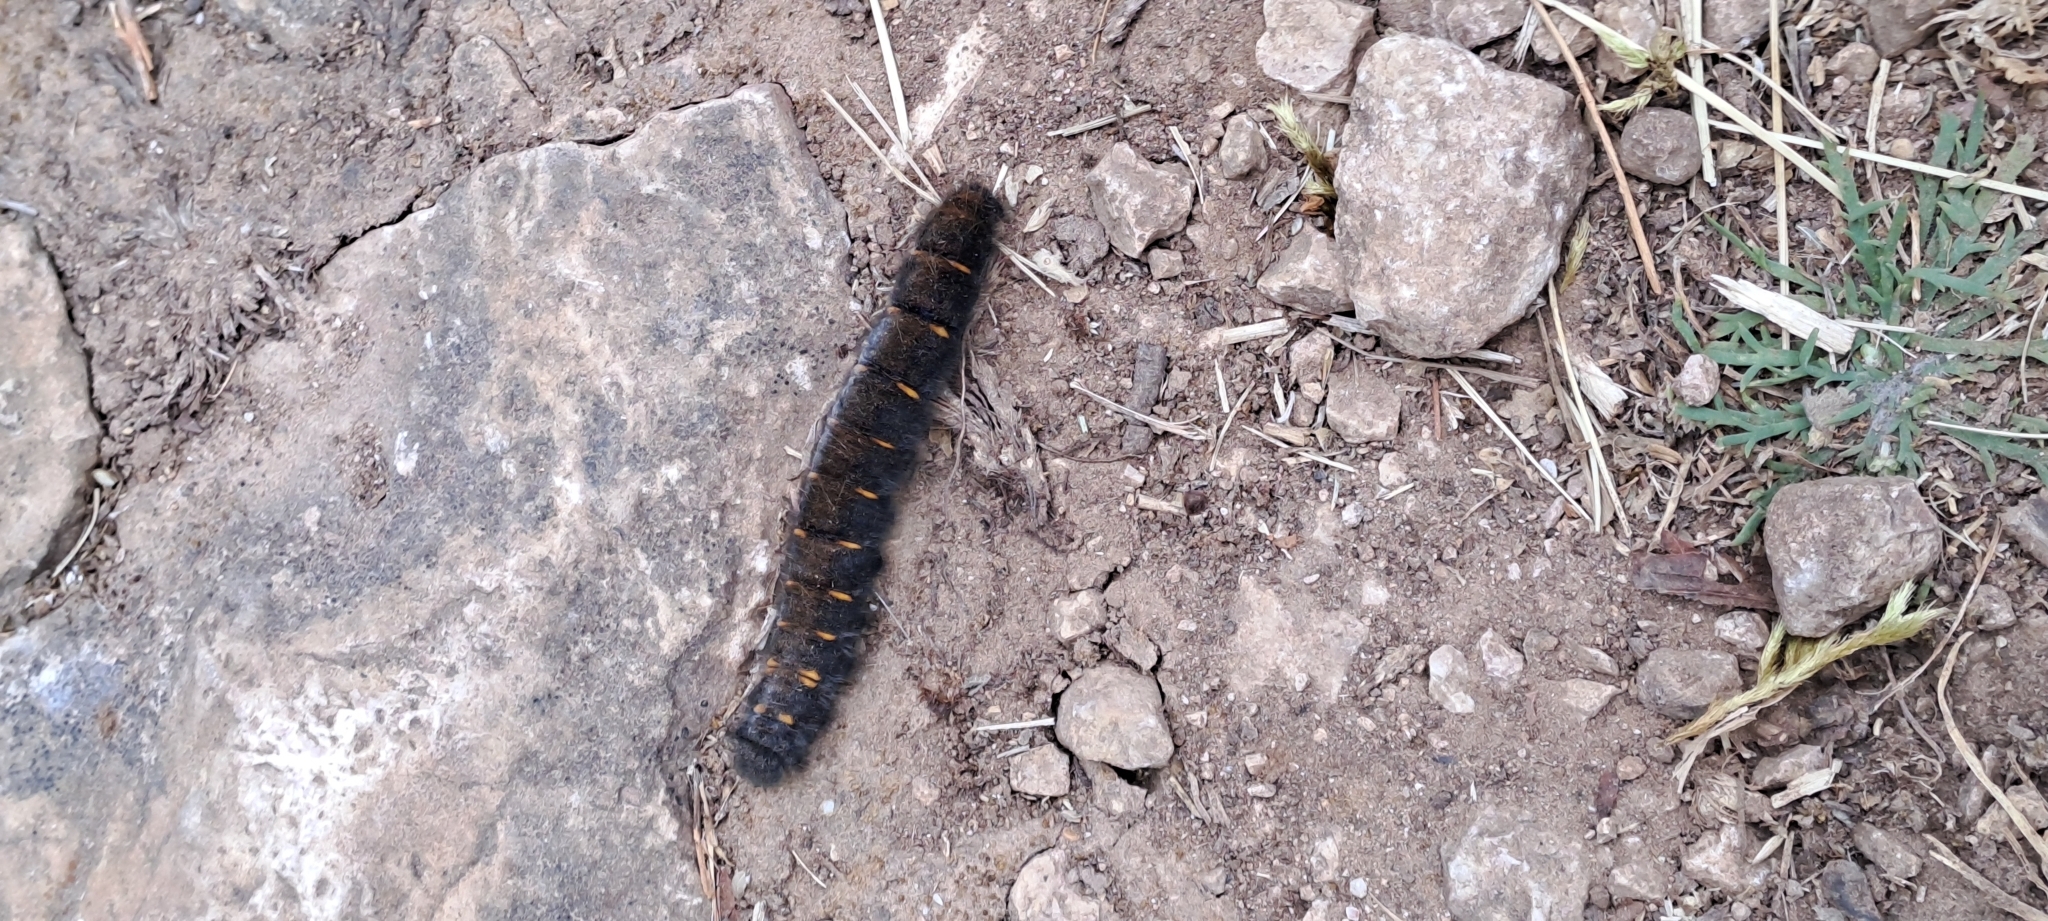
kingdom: Animalia
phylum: Arthropoda
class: Insecta
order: Lepidoptera
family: Lasiocampidae
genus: Macrothylacia
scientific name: Macrothylacia rubi
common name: Fox moth
